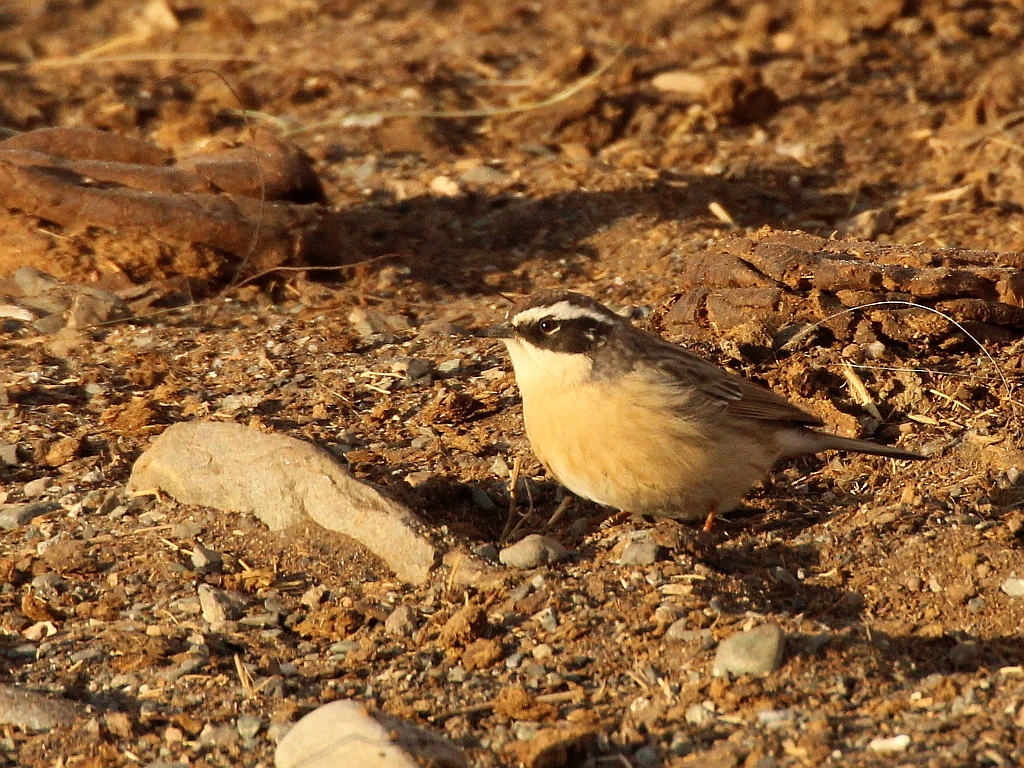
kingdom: Animalia
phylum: Chordata
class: Aves
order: Passeriformes
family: Prunellidae
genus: Prunella
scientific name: Prunella fulvescens
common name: Brown accentor
